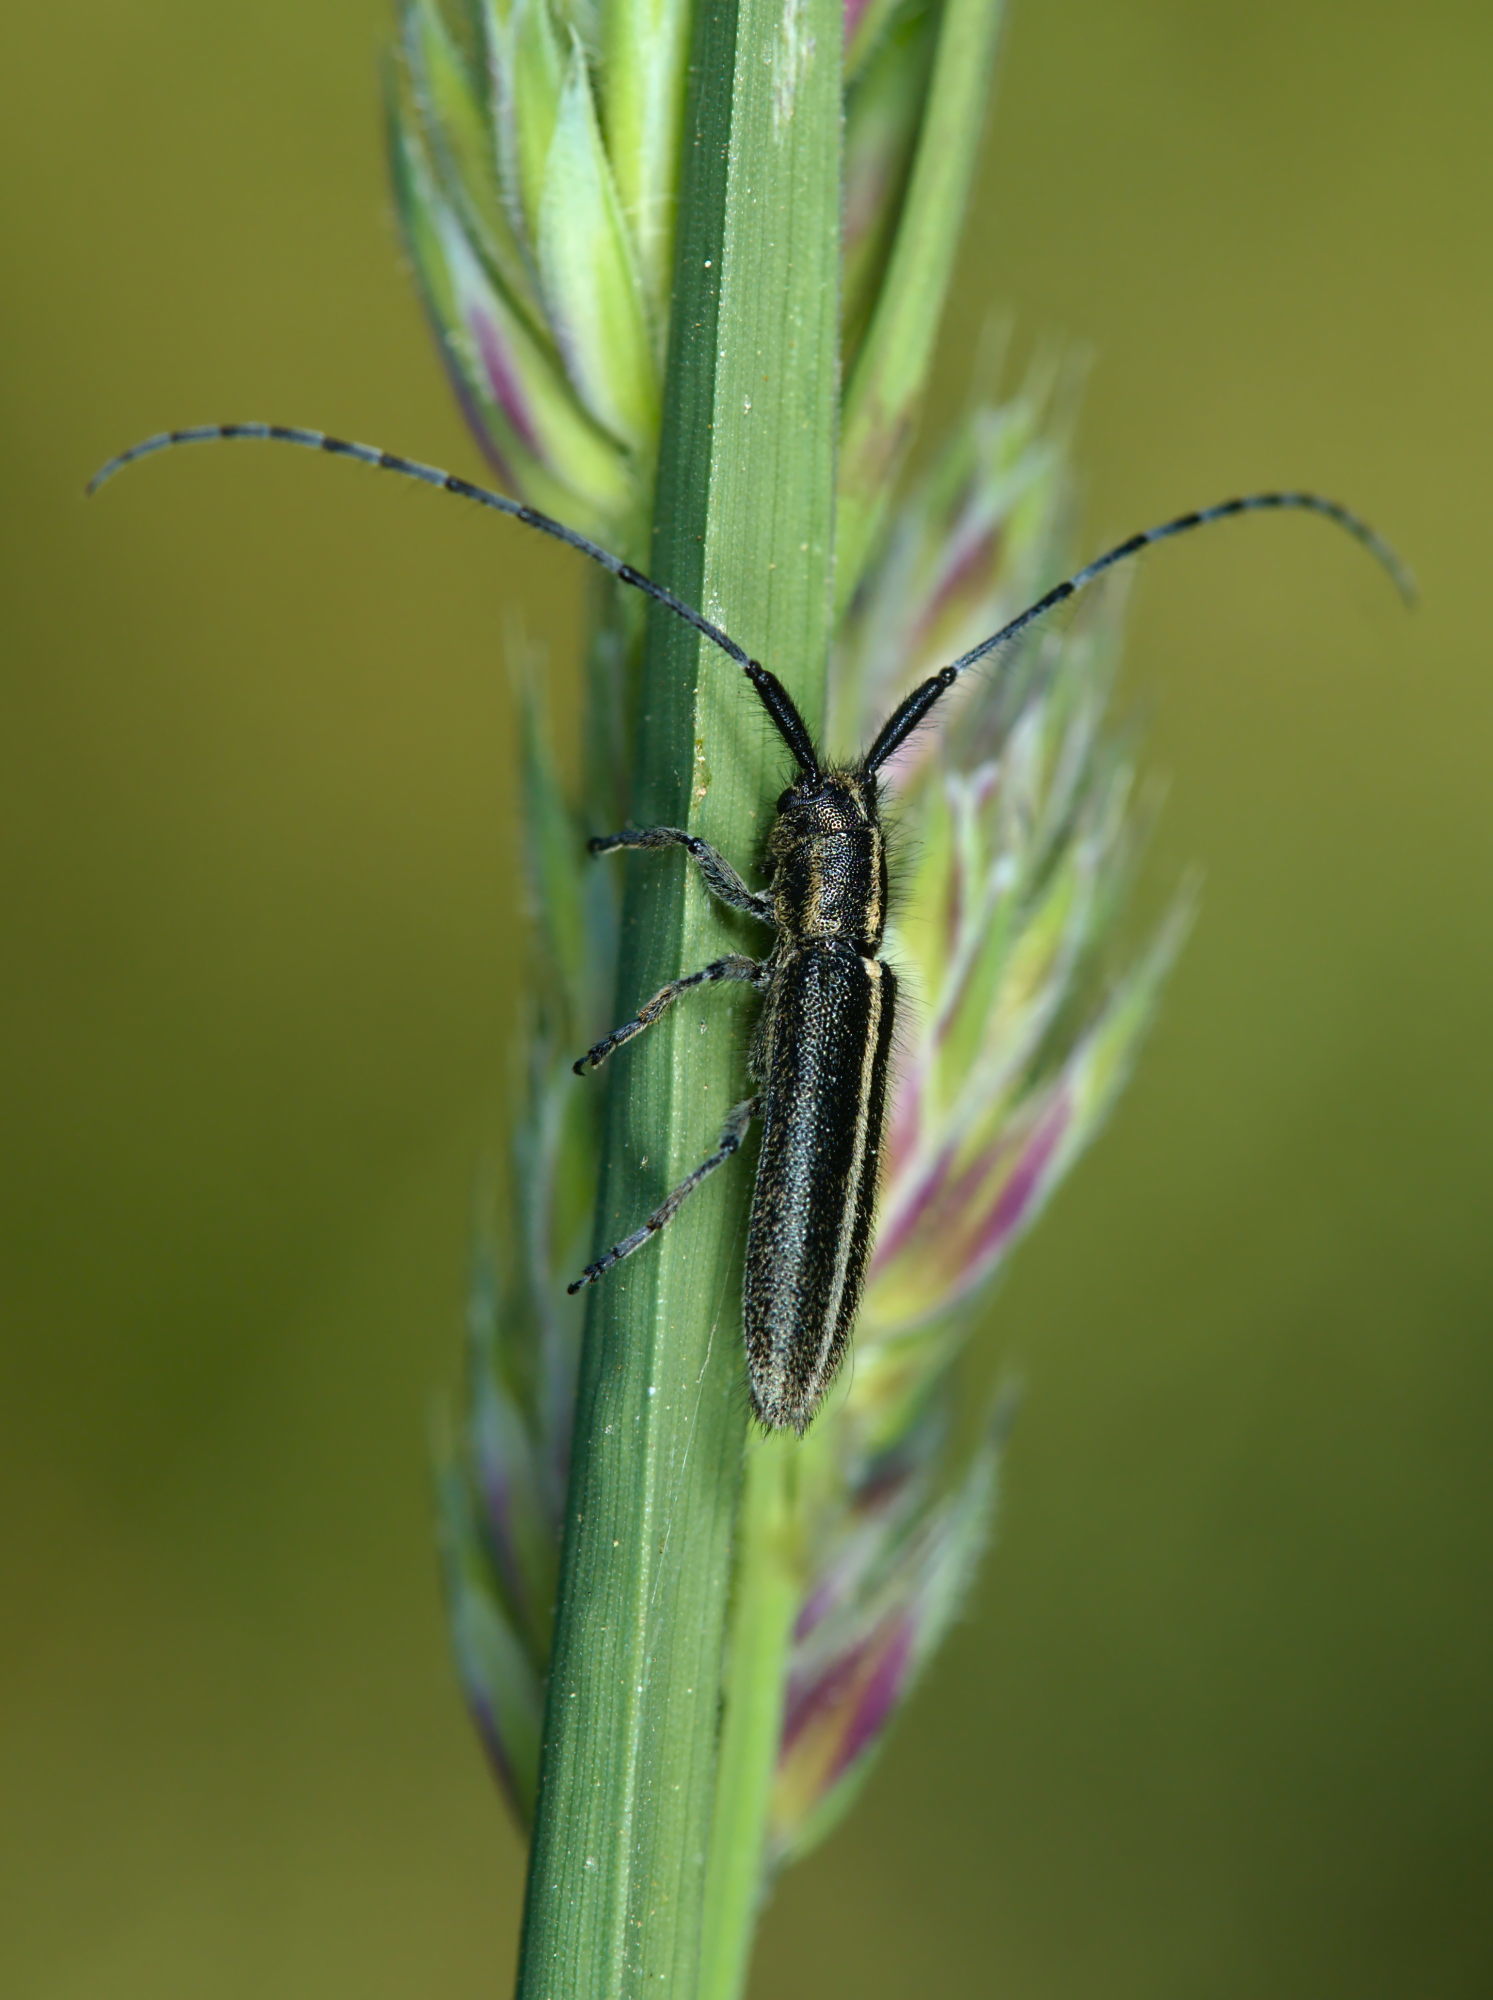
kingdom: Animalia
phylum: Arthropoda
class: Insecta
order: Coleoptera
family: Cerambycidae
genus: Agapanthia
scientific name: Agapanthia cardui
